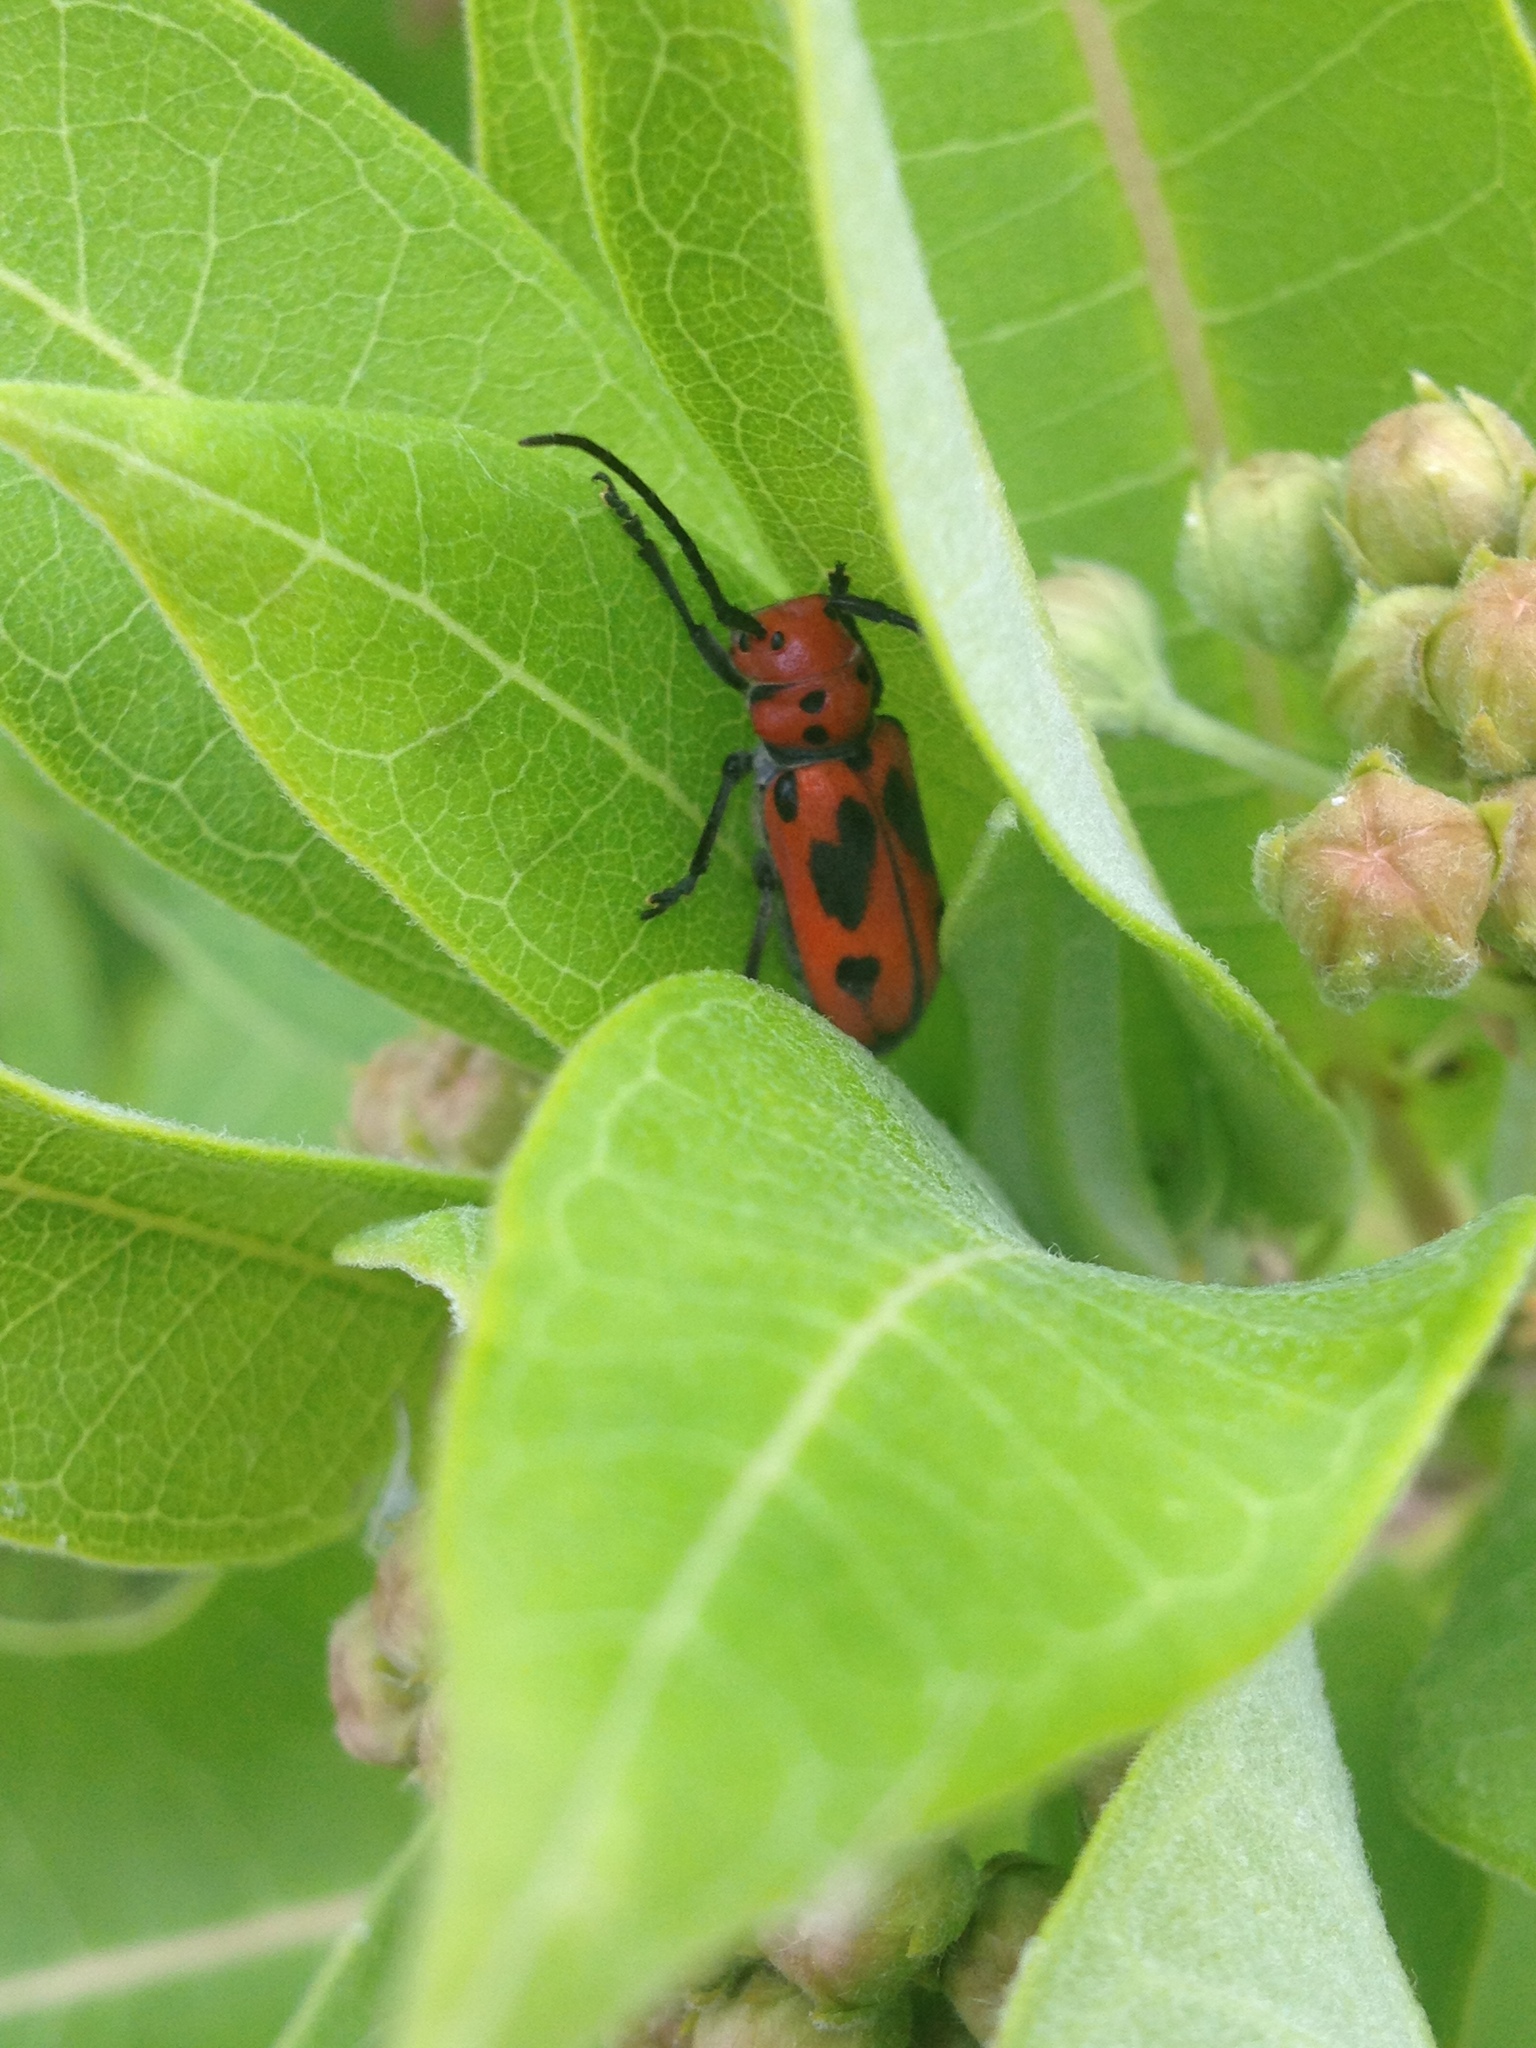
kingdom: Animalia
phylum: Arthropoda
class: Insecta
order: Coleoptera
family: Cerambycidae
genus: Tetraopes
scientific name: Tetraopes tetrophthalmus
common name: Red milkweed beetle
